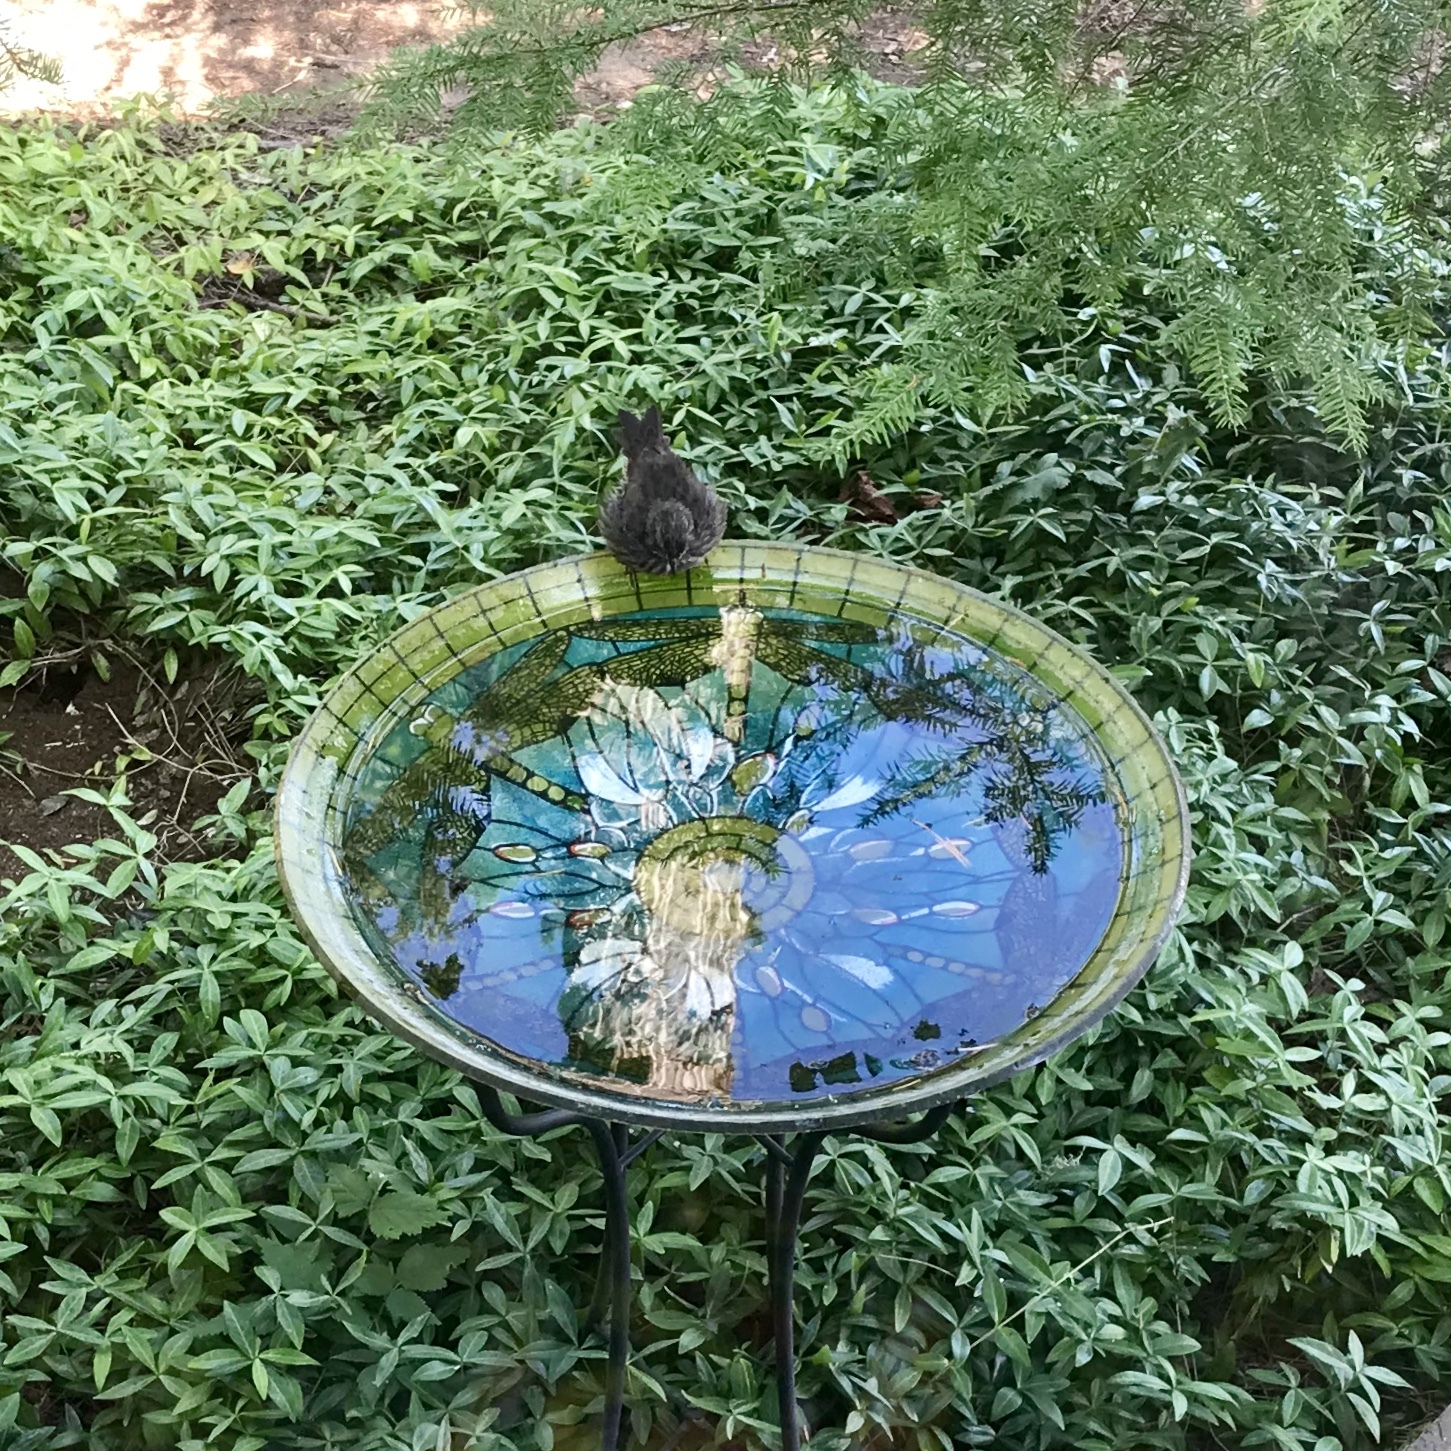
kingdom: Animalia
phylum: Chordata
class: Aves
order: Passeriformes
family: Passerellidae
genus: Melospiza
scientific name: Melospiza melodia
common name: Song sparrow
